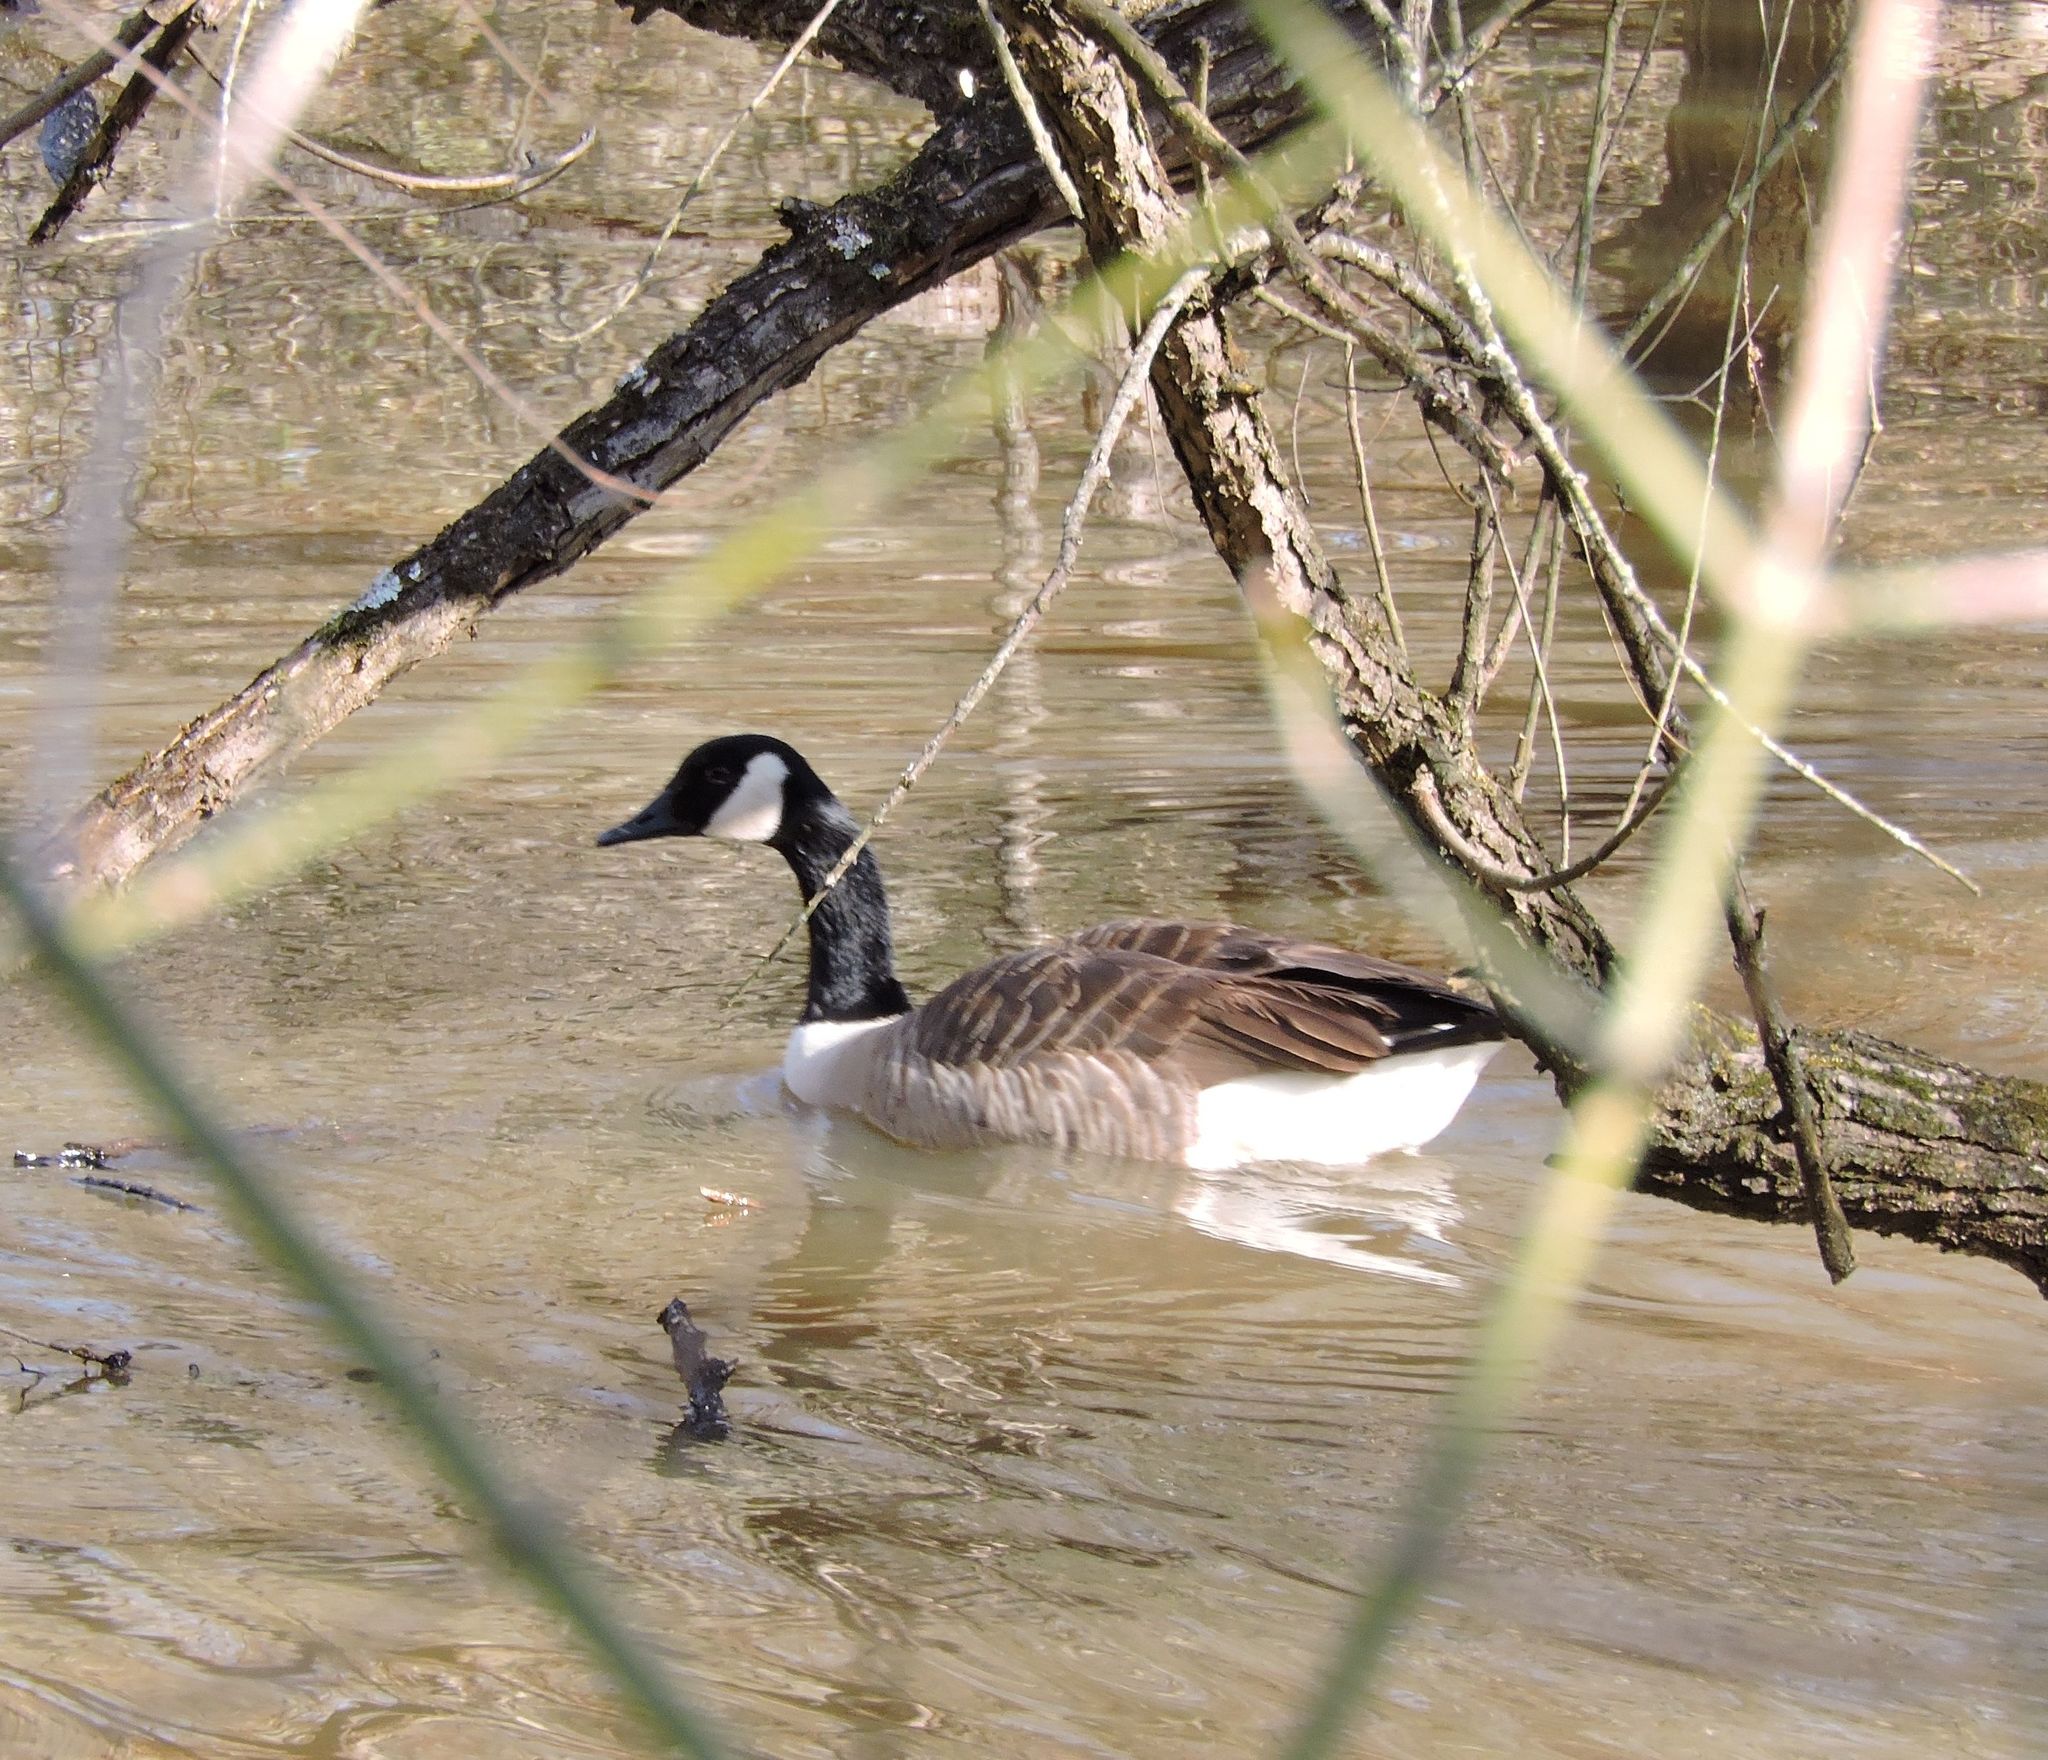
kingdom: Animalia
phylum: Chordata
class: Aves
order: Anseriformes
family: Anatidae
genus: Branta
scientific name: Branta canadensis
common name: Canada goose
